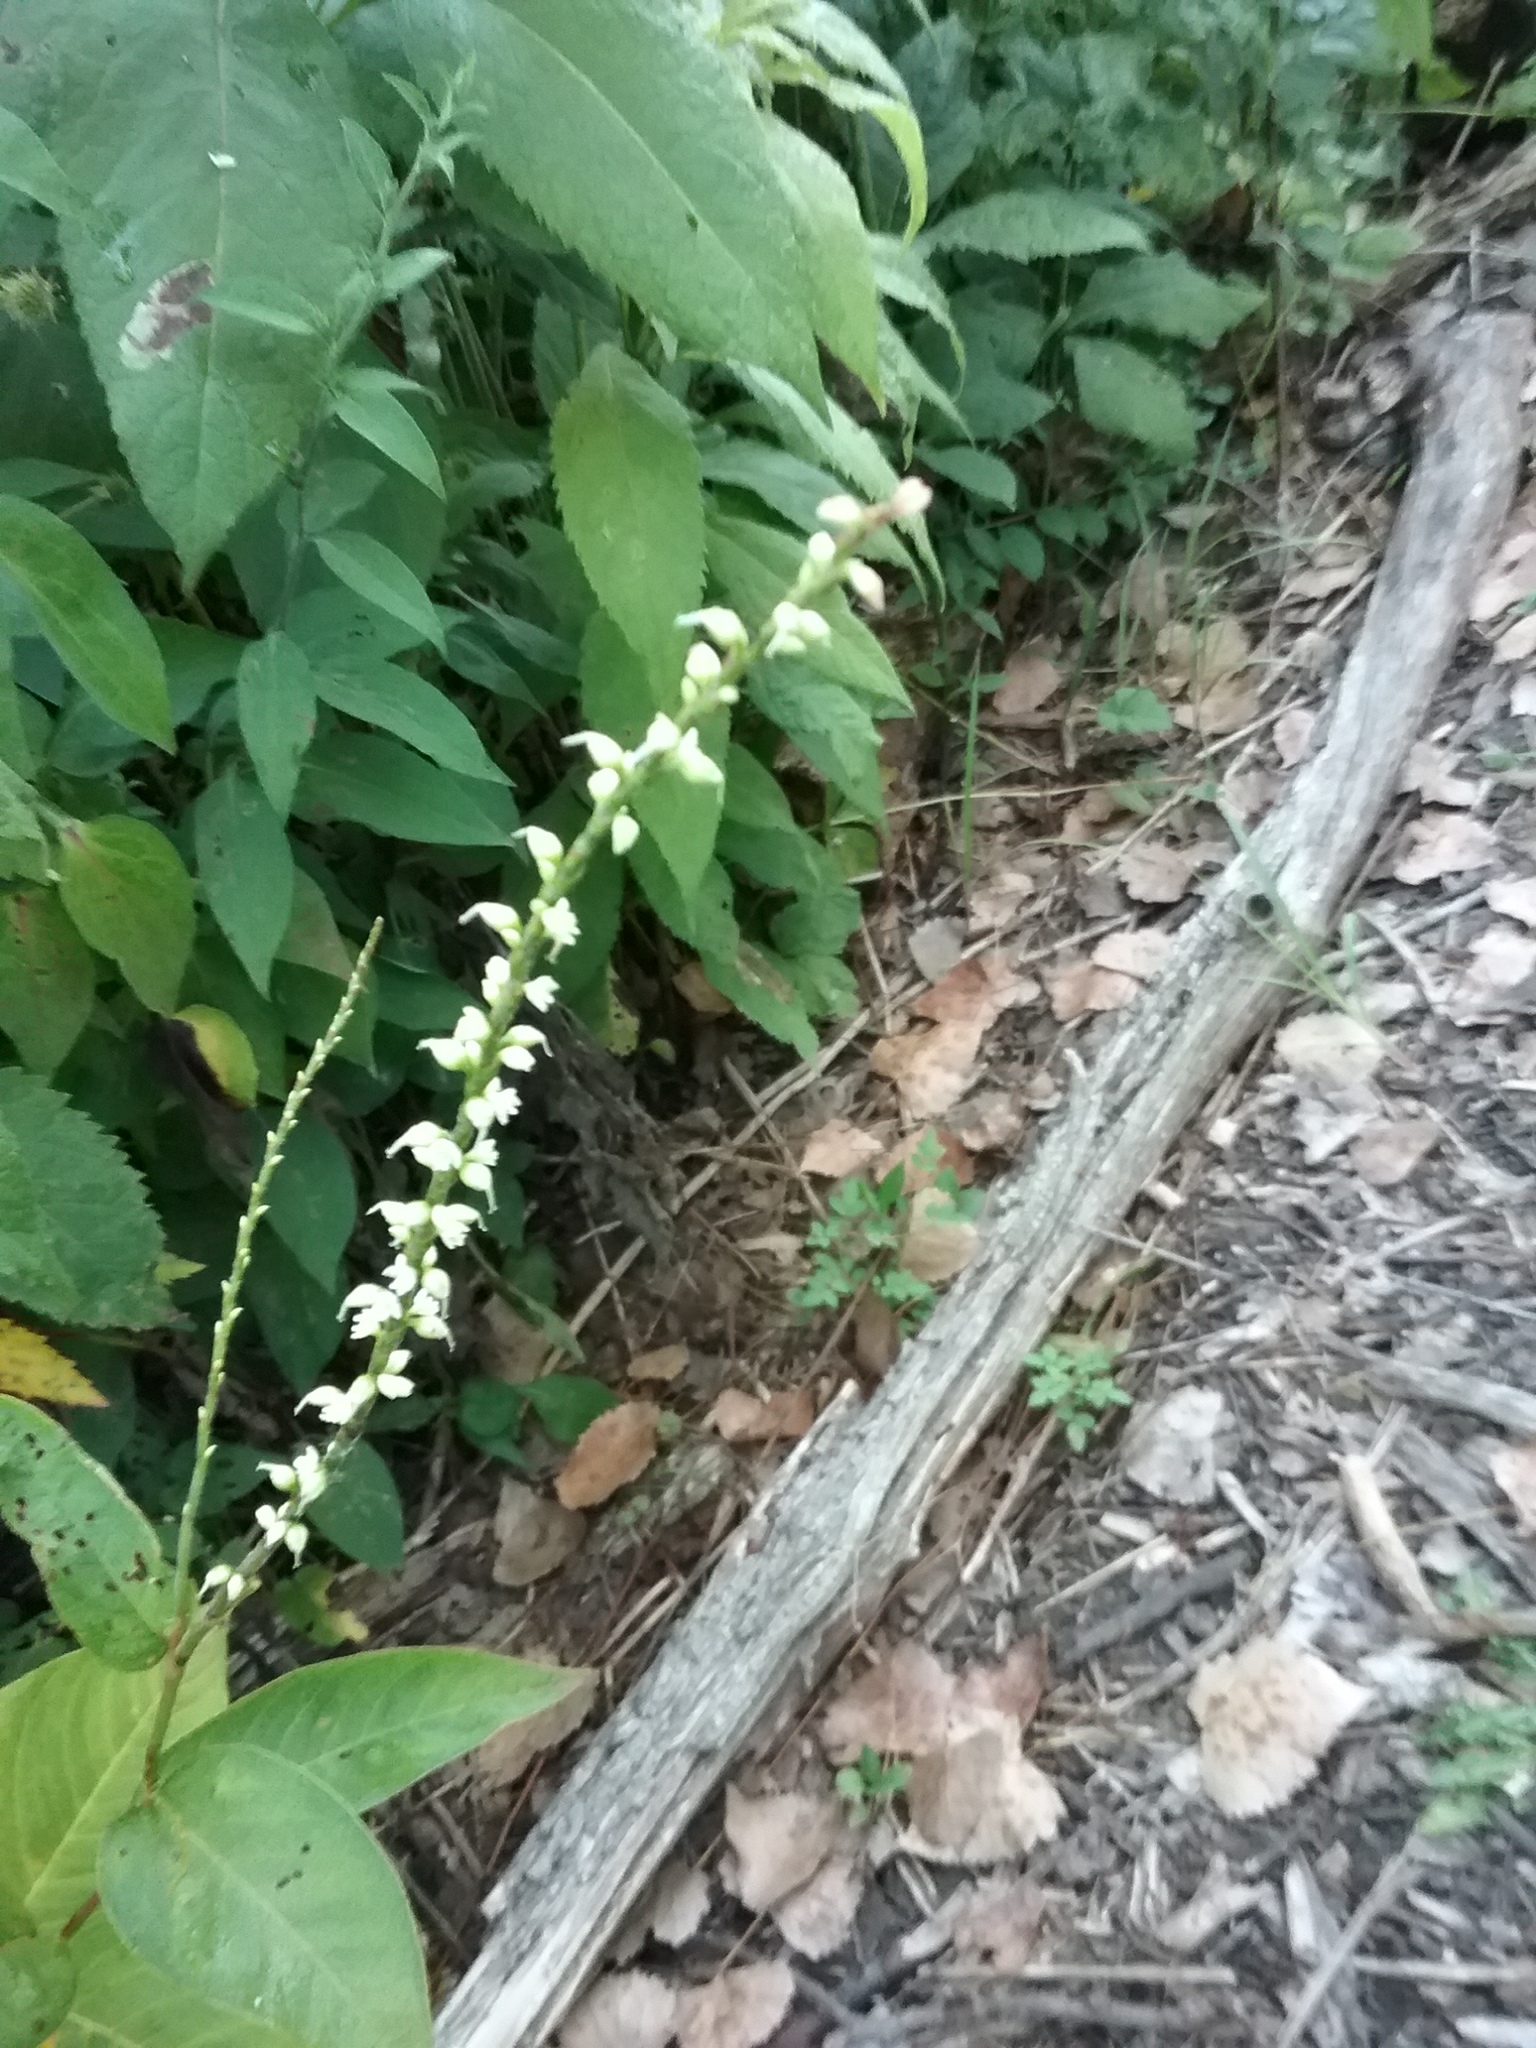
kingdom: Plantae
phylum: Tracheophyta
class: Magnoliopsida
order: Caryophyllales
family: Polygonaceae
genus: Persicaria
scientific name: Persicaria virginiana
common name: Jumpseed
